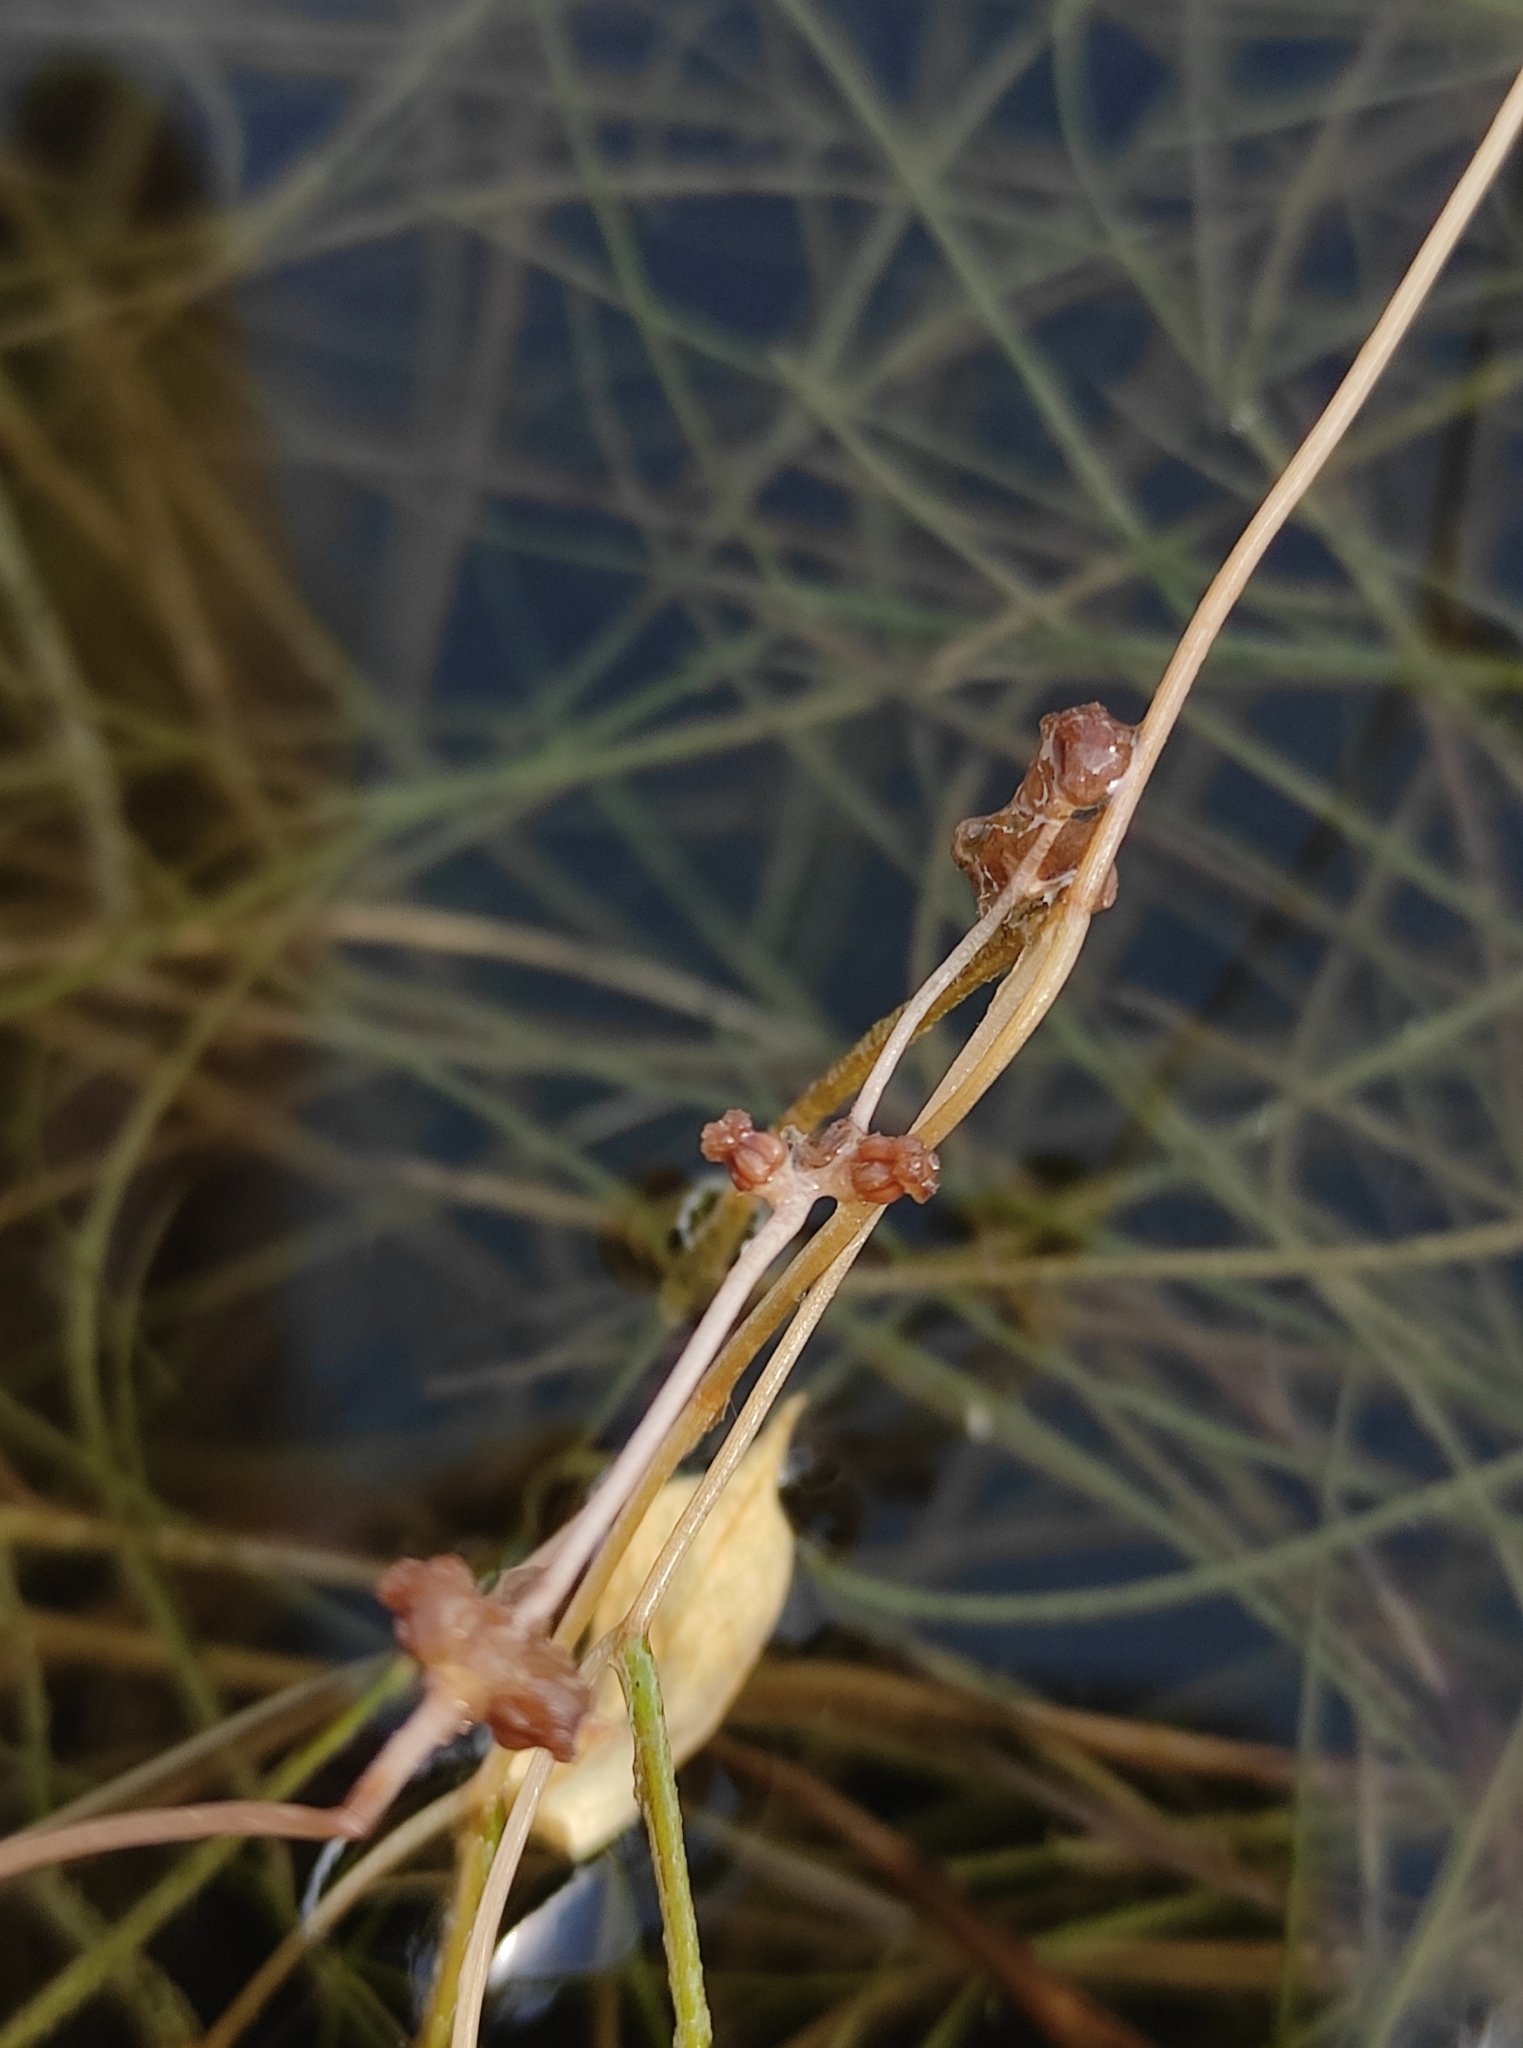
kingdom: Plantae
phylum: Tracheophyta
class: Liliopsida
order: Alismatales
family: Potamogetonaceae
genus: Stuckenia
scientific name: Stuckenia pectinata
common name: Sago pondweed
